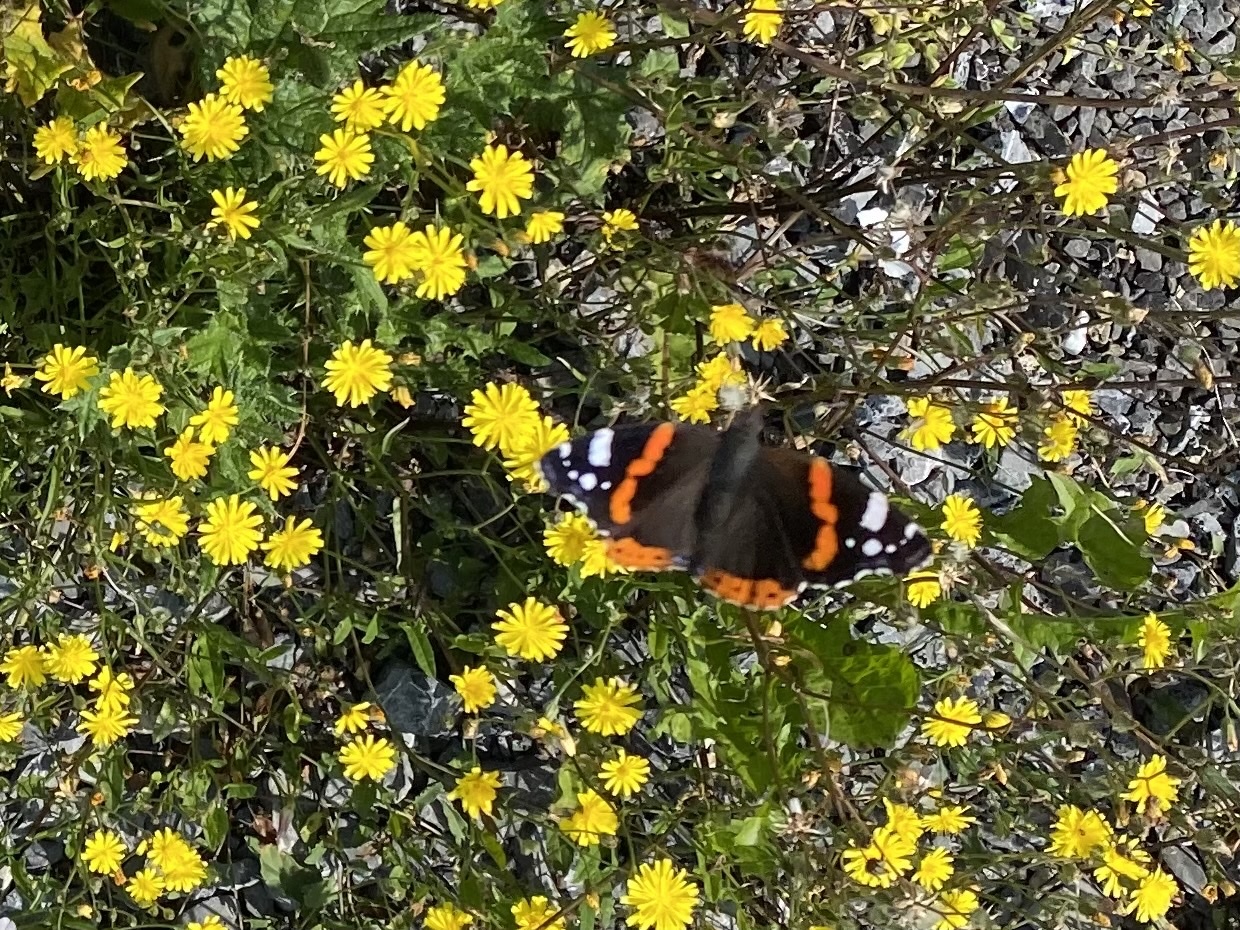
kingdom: Animalia
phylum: Arthropoda
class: Insecta
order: Lepidoptera
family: Nymphalidae
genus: Vanessa
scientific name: Vanessa atalanta
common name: Red admiral
